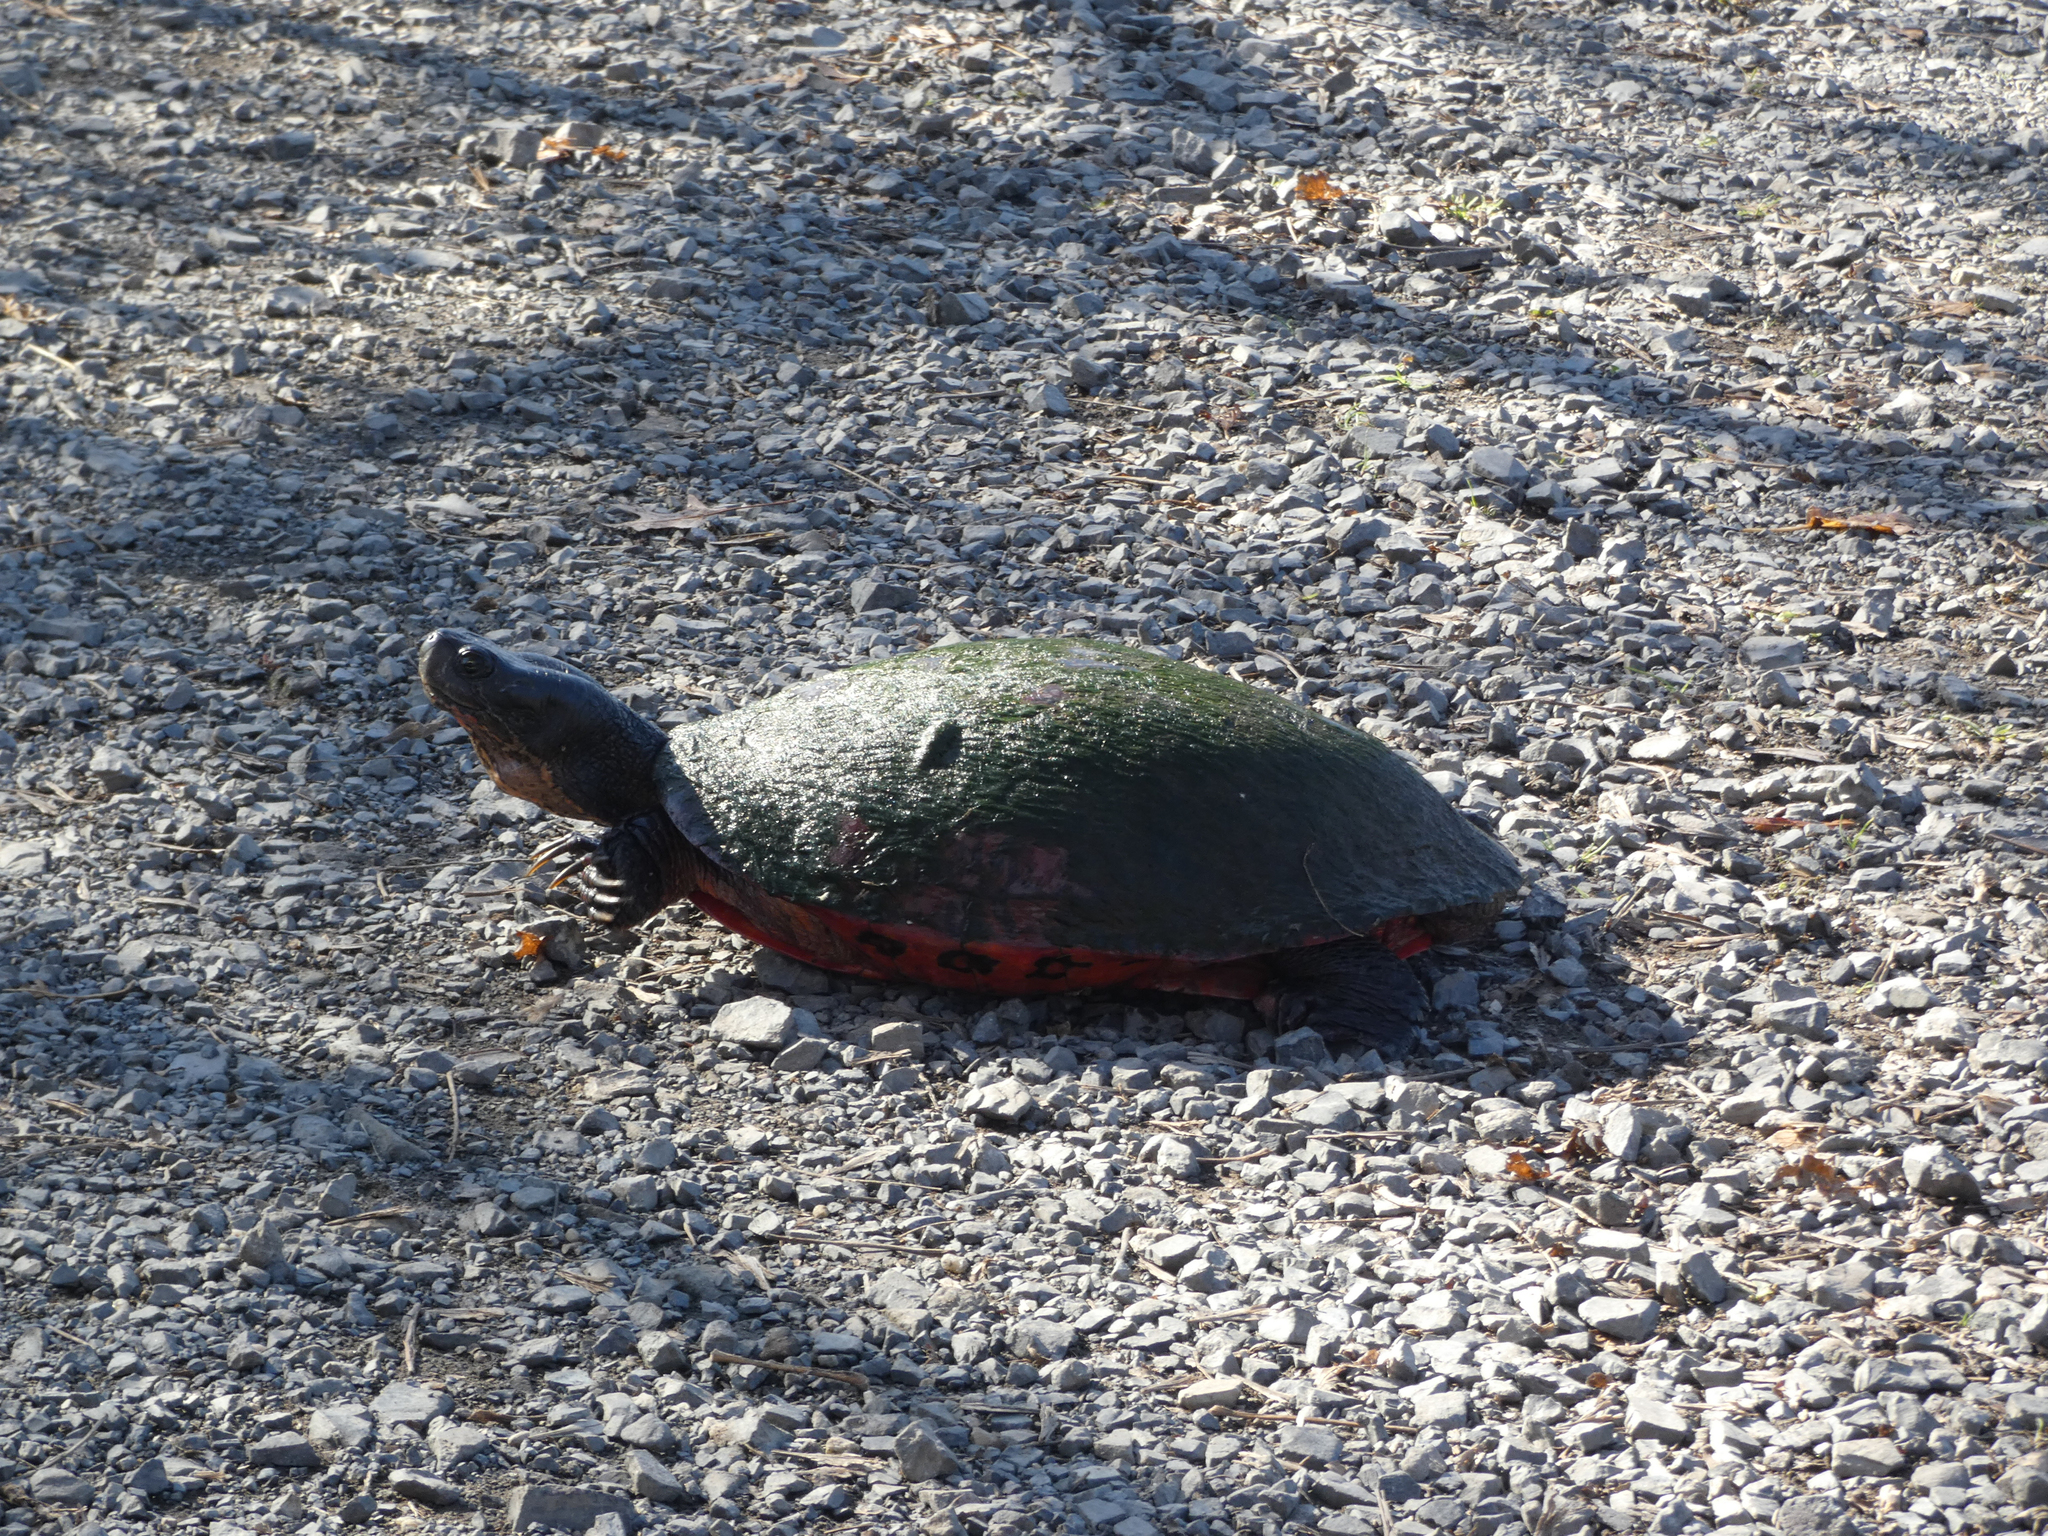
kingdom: Animalia
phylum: Chordata
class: Testudines
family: Emydidae
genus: Pseudemys
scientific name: Pseudemys rubriventris
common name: American red-bellied turtle
